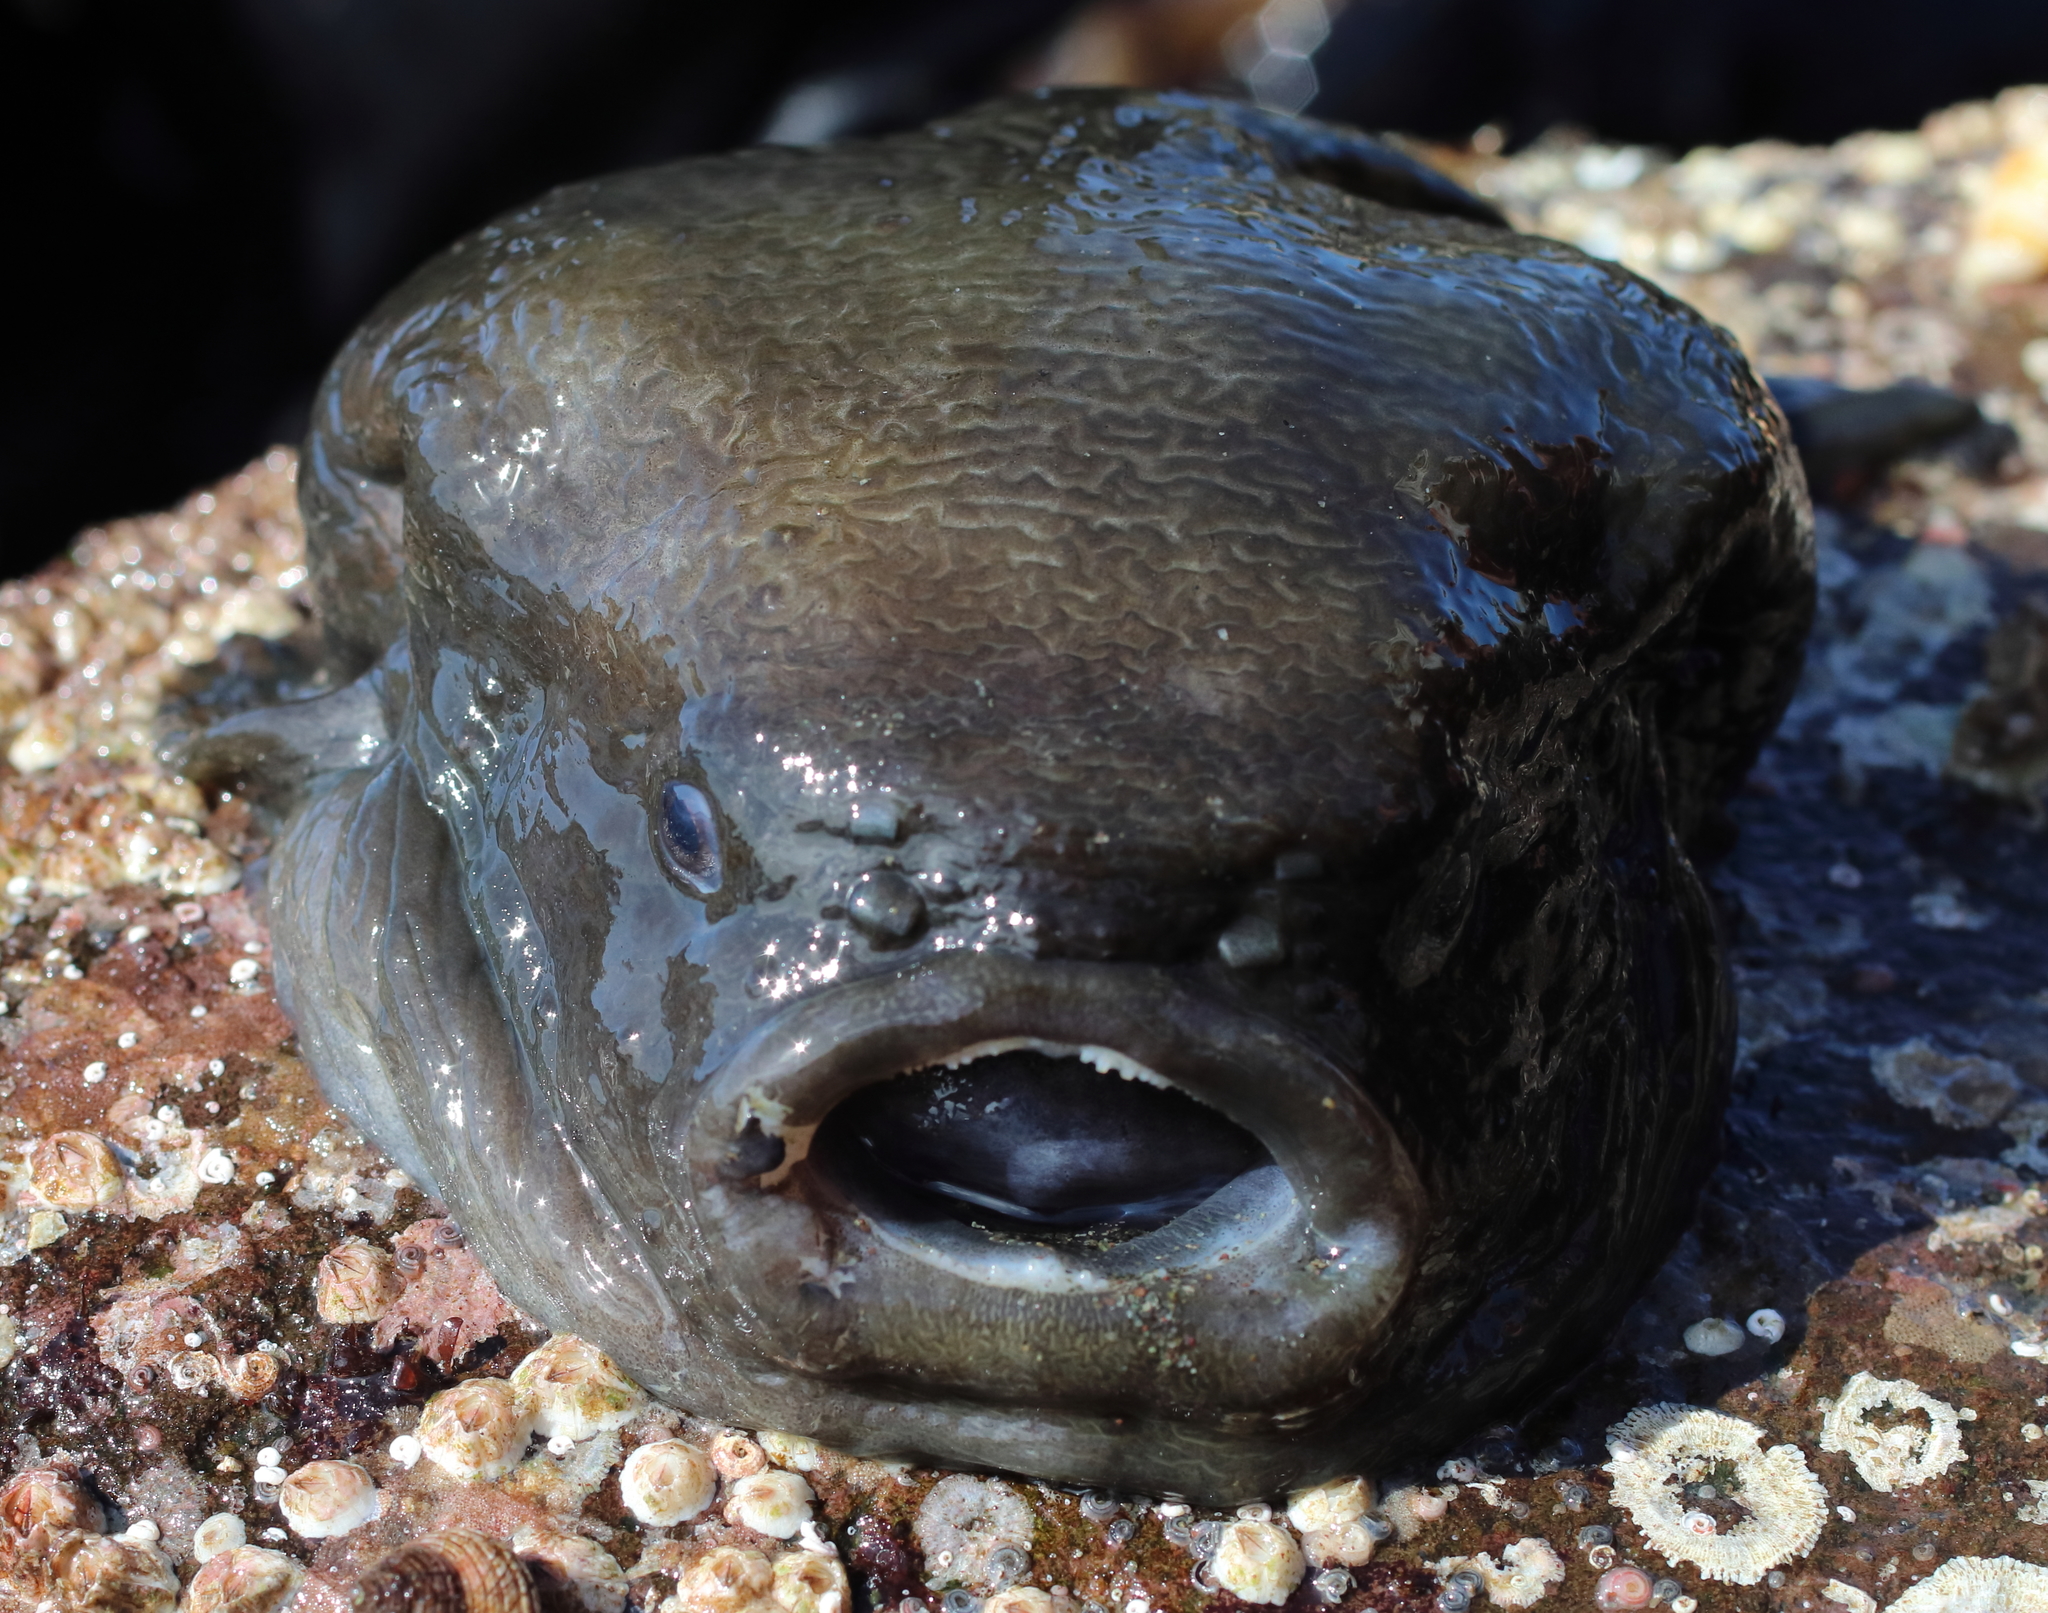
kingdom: Animalia
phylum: Chordata
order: Scorpaeniformes
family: Cyclopteridae
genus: Aptocyclus
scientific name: Aptocyclus ventricosus
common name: Smooth lumpsucker
